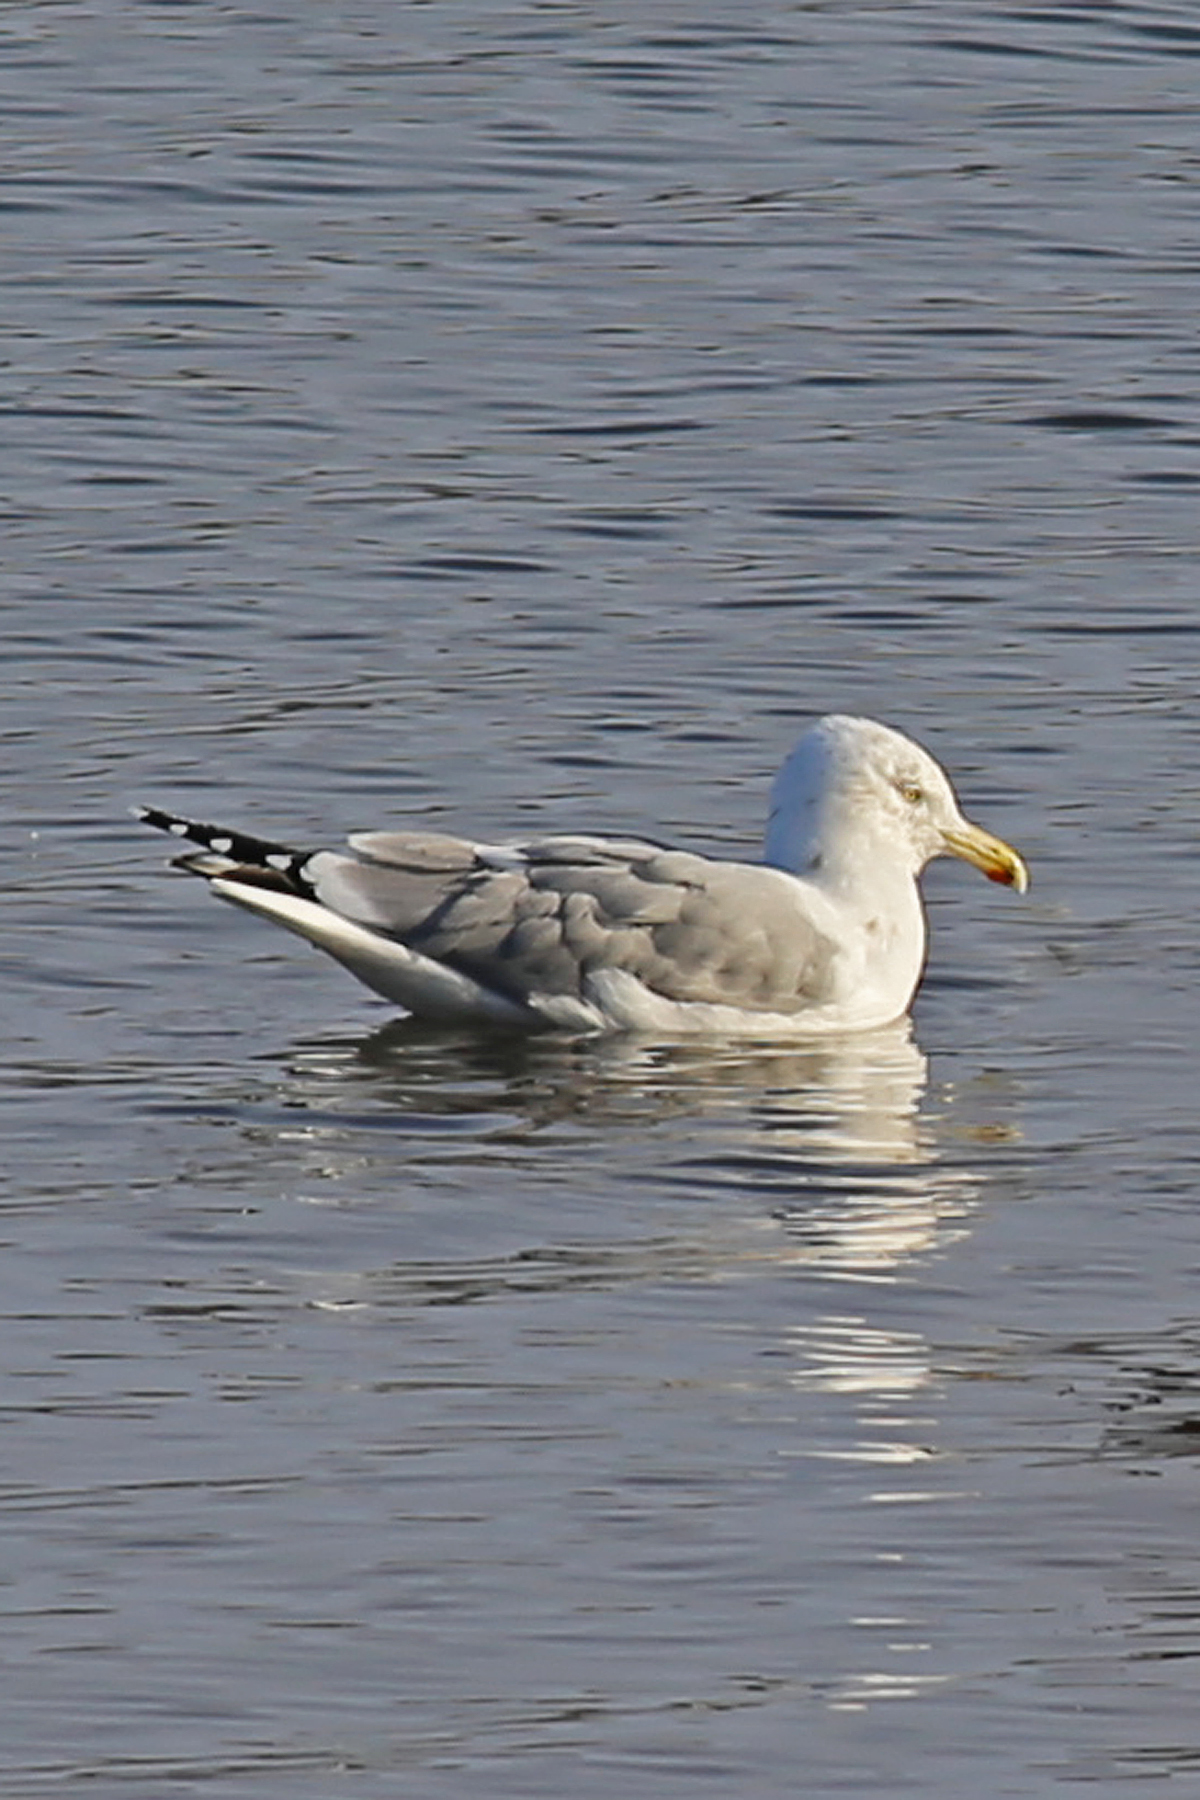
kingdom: Animalia
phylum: Chordata
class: Aves
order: Charadriiformes
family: Laridae
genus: Larus
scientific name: Larus argentatus
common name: Herring gull
